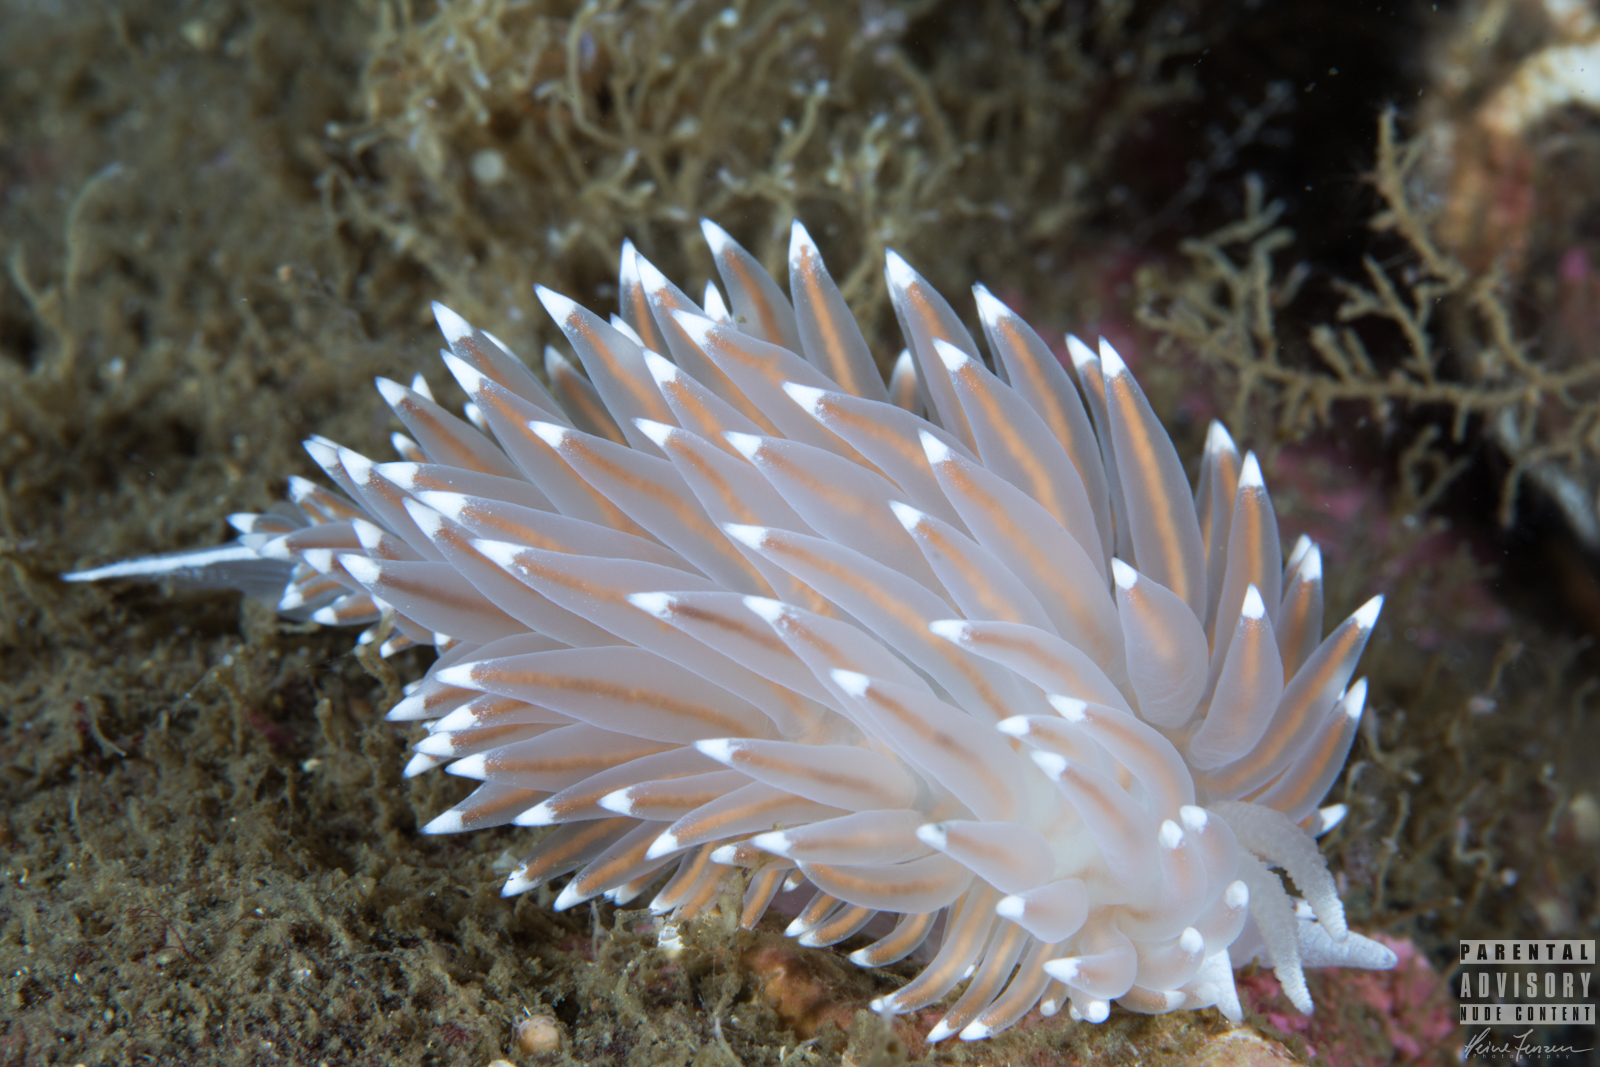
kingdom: Animalia
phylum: Mollusca
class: Gastropoda
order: Nudibranchia
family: Coryphellidae
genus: Coryphella
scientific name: Coryphella nobilis
